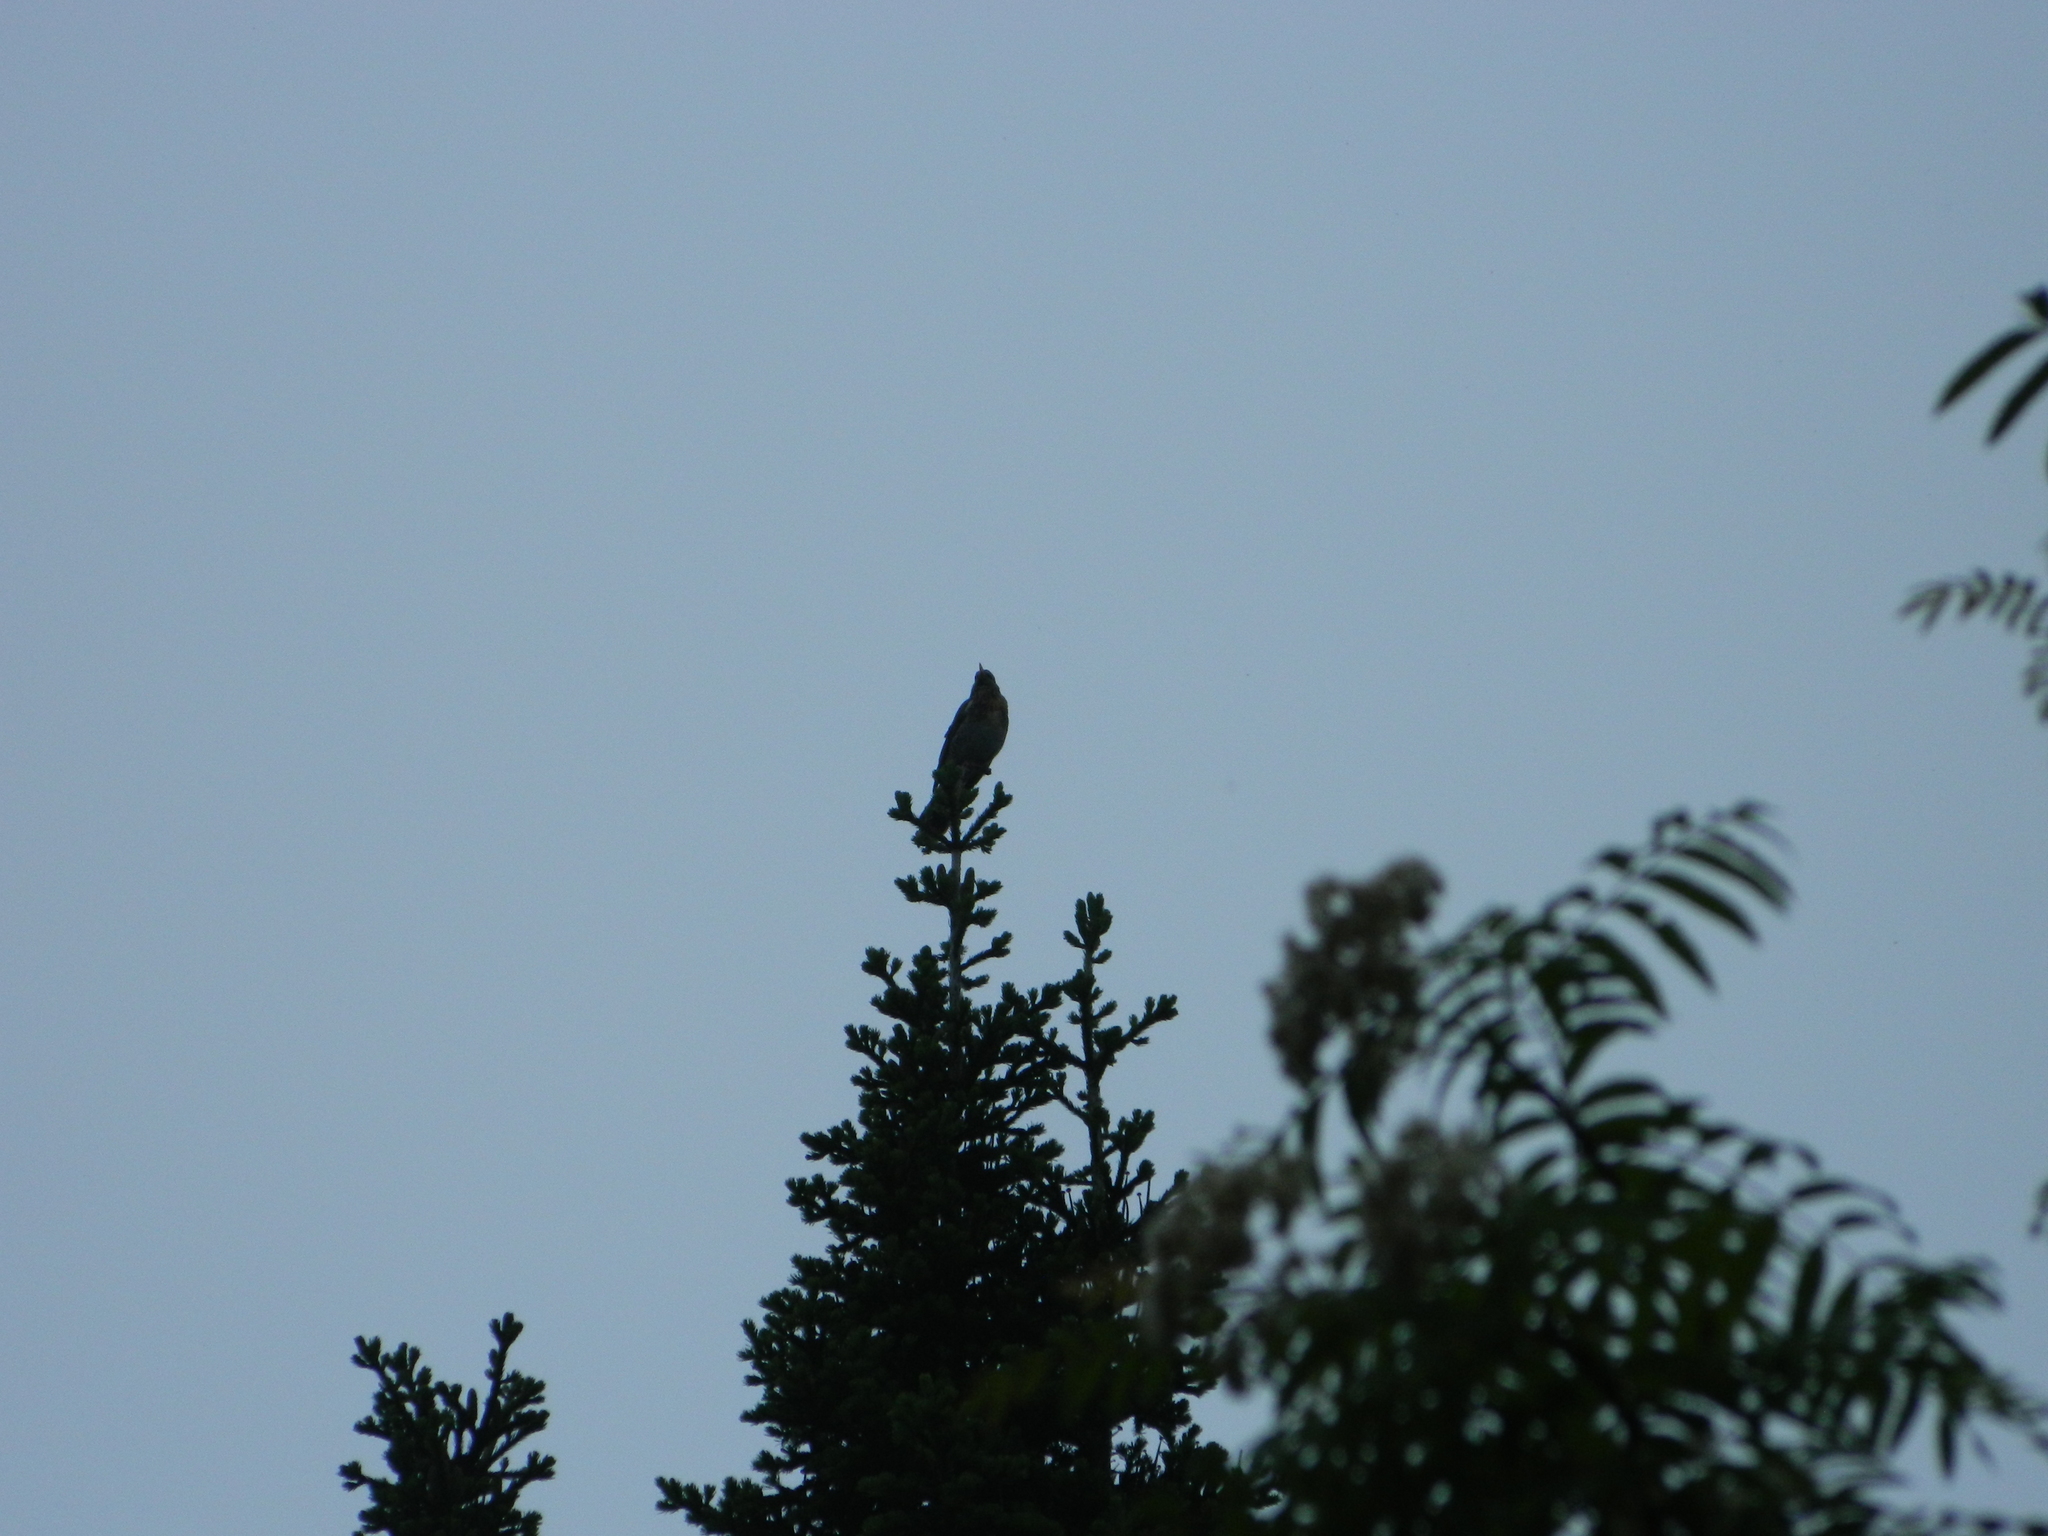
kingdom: Animalia
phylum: Chordata
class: Aves
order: Passeriformes
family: Turdidae
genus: Turdus
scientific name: Turdus pilaris
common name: Fieldfare
